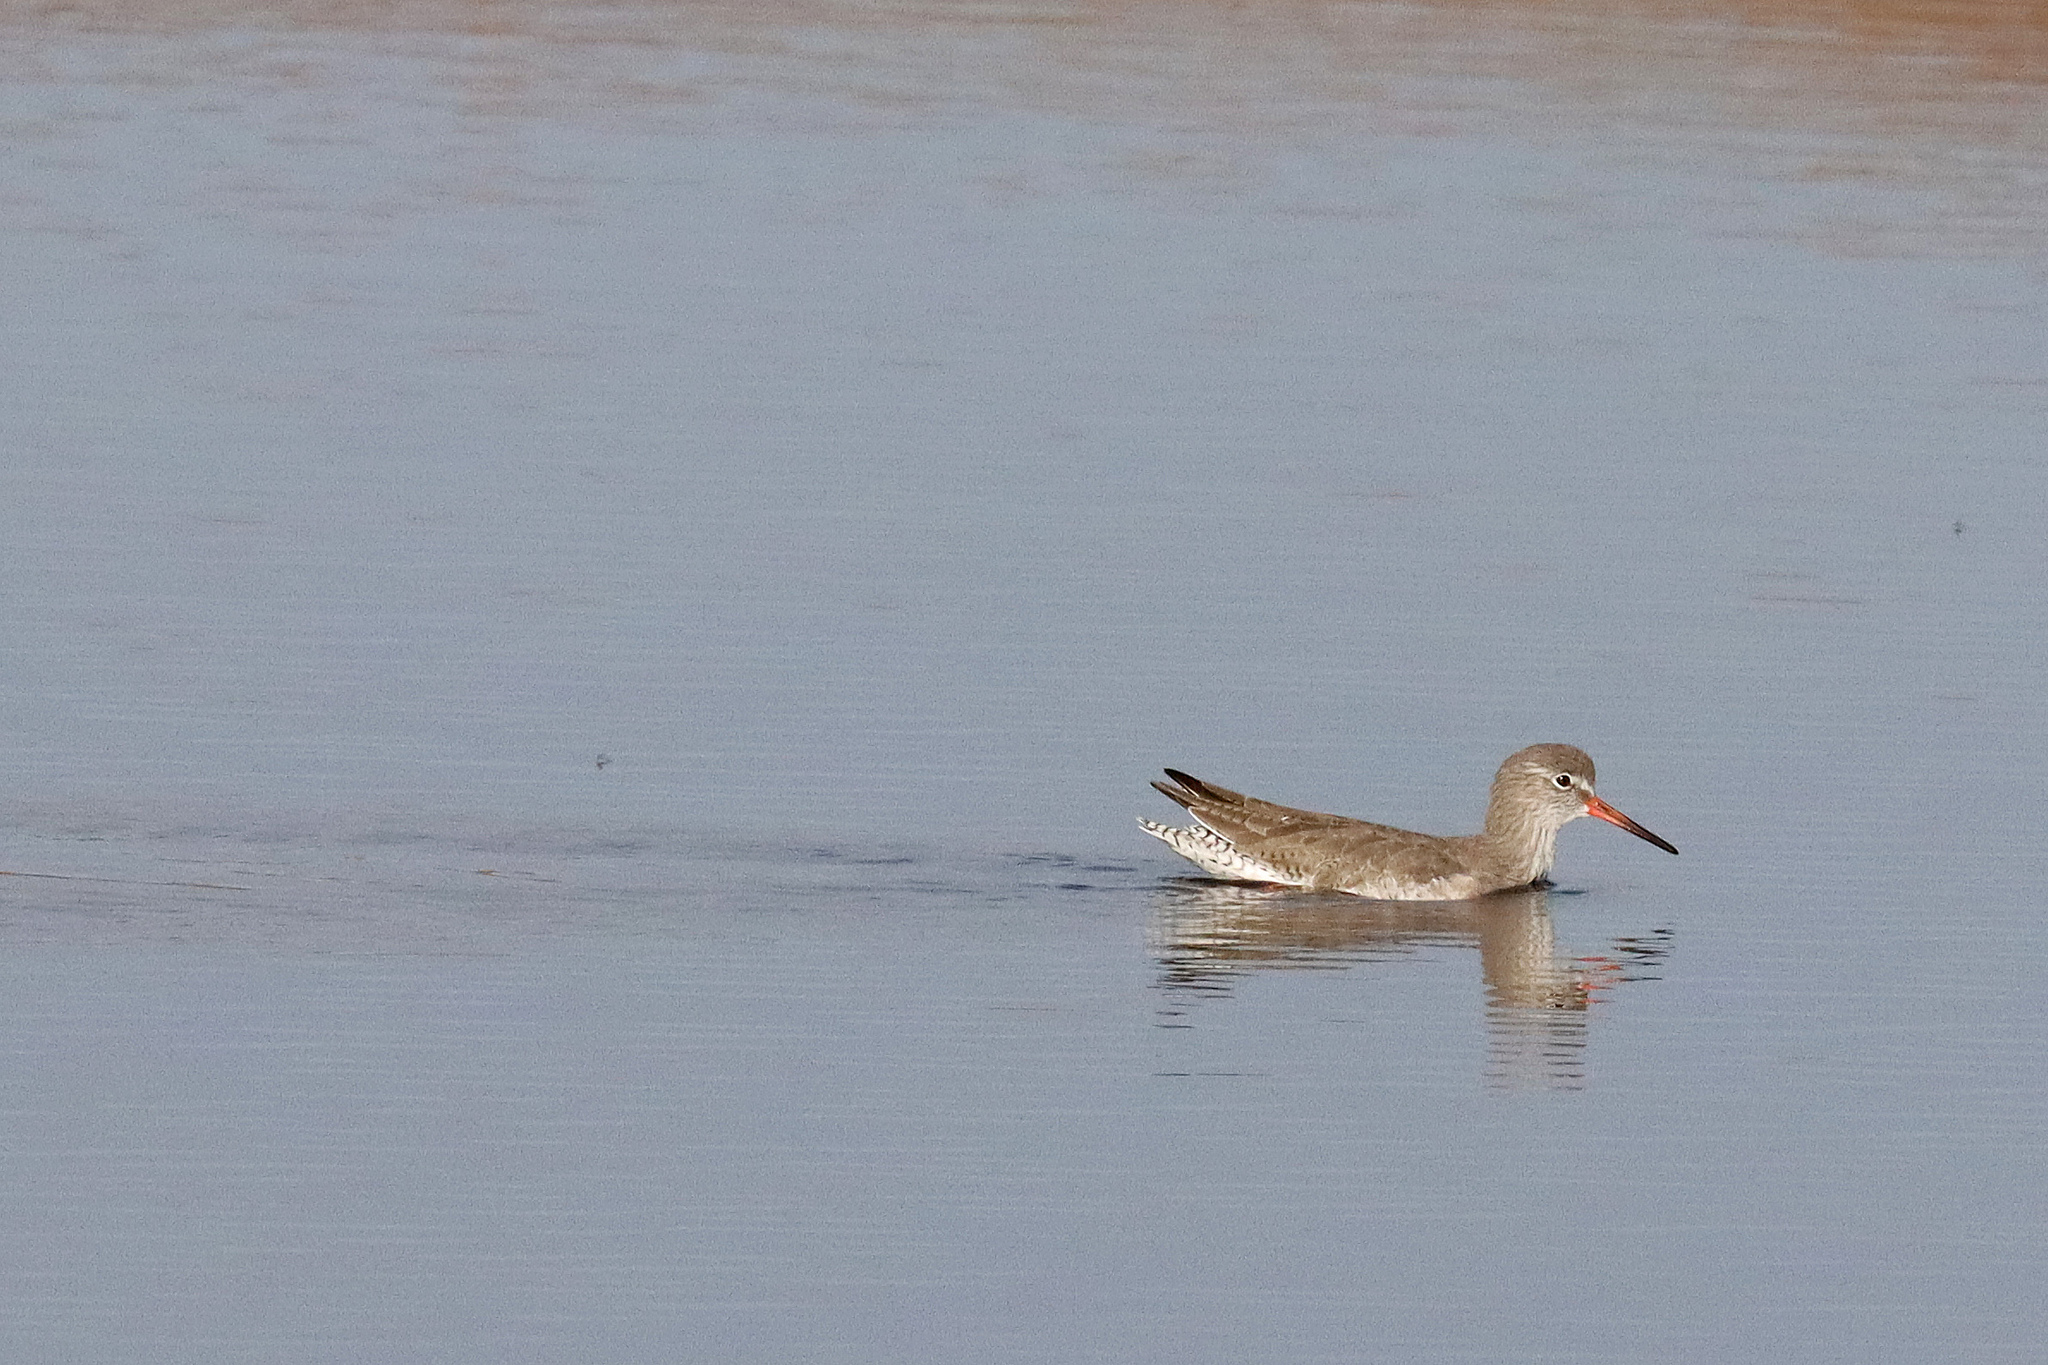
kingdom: Animalia
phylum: Chordata
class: Aves
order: Charadriiformes
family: Scolopacidae
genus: Tringa
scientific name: Tringa totanus
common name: Common redshank
